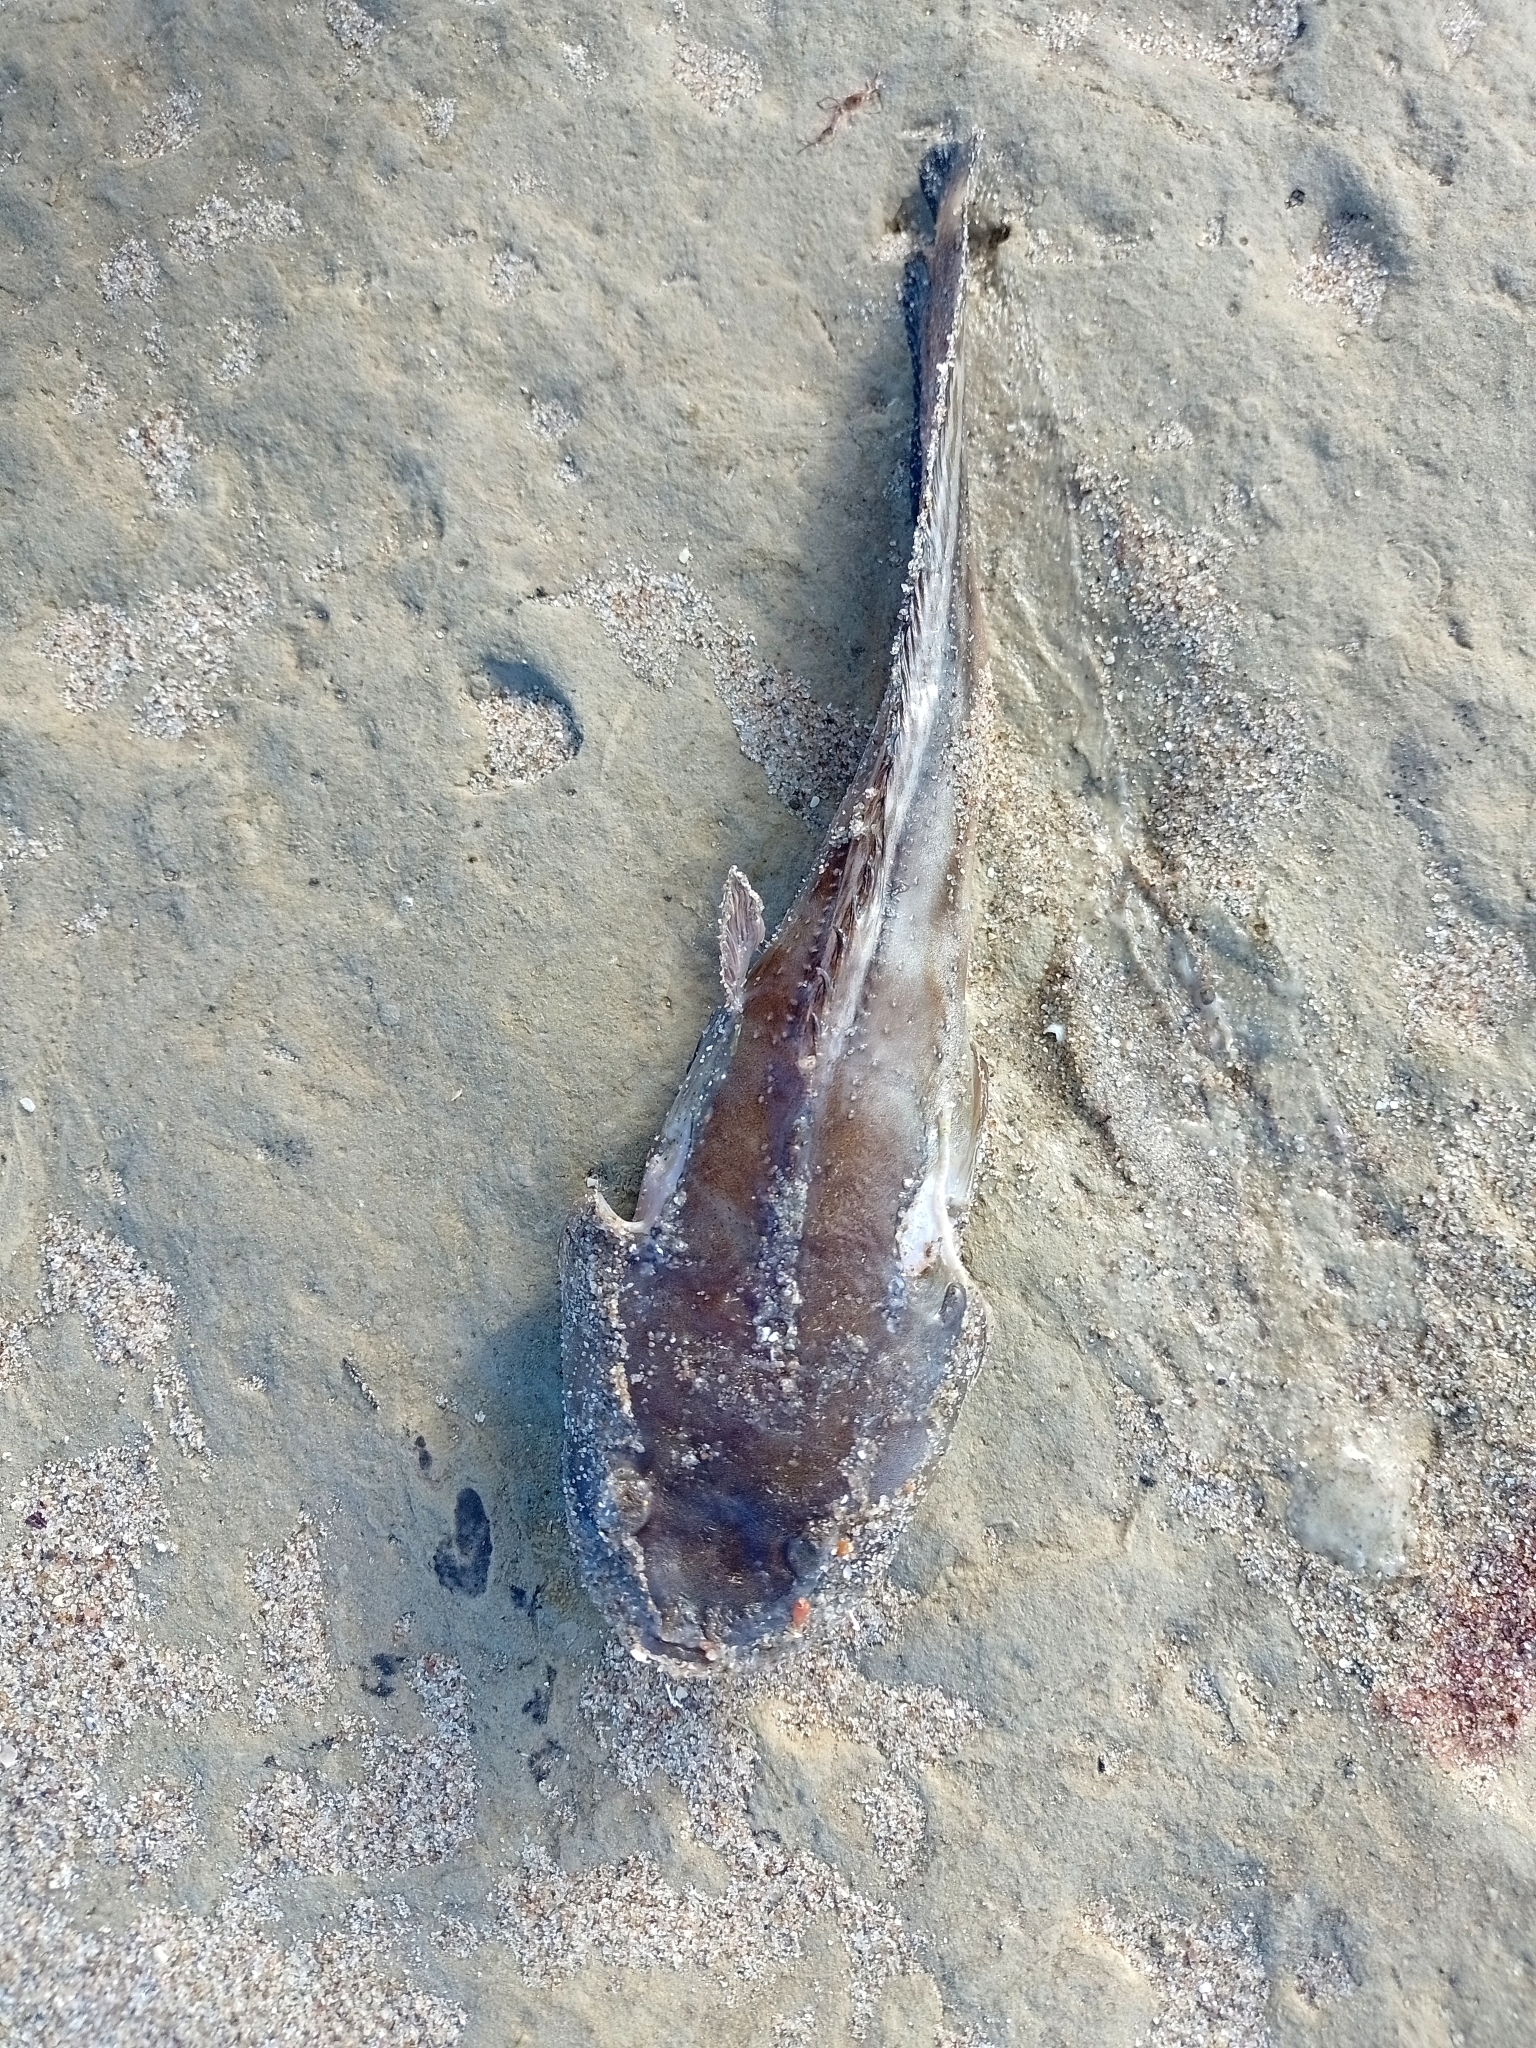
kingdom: Animalia
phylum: Chordata
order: Batrachoidiformes
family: Batrachoididae
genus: Porichthys
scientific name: Porichthys porosissimus
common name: Toadfish
